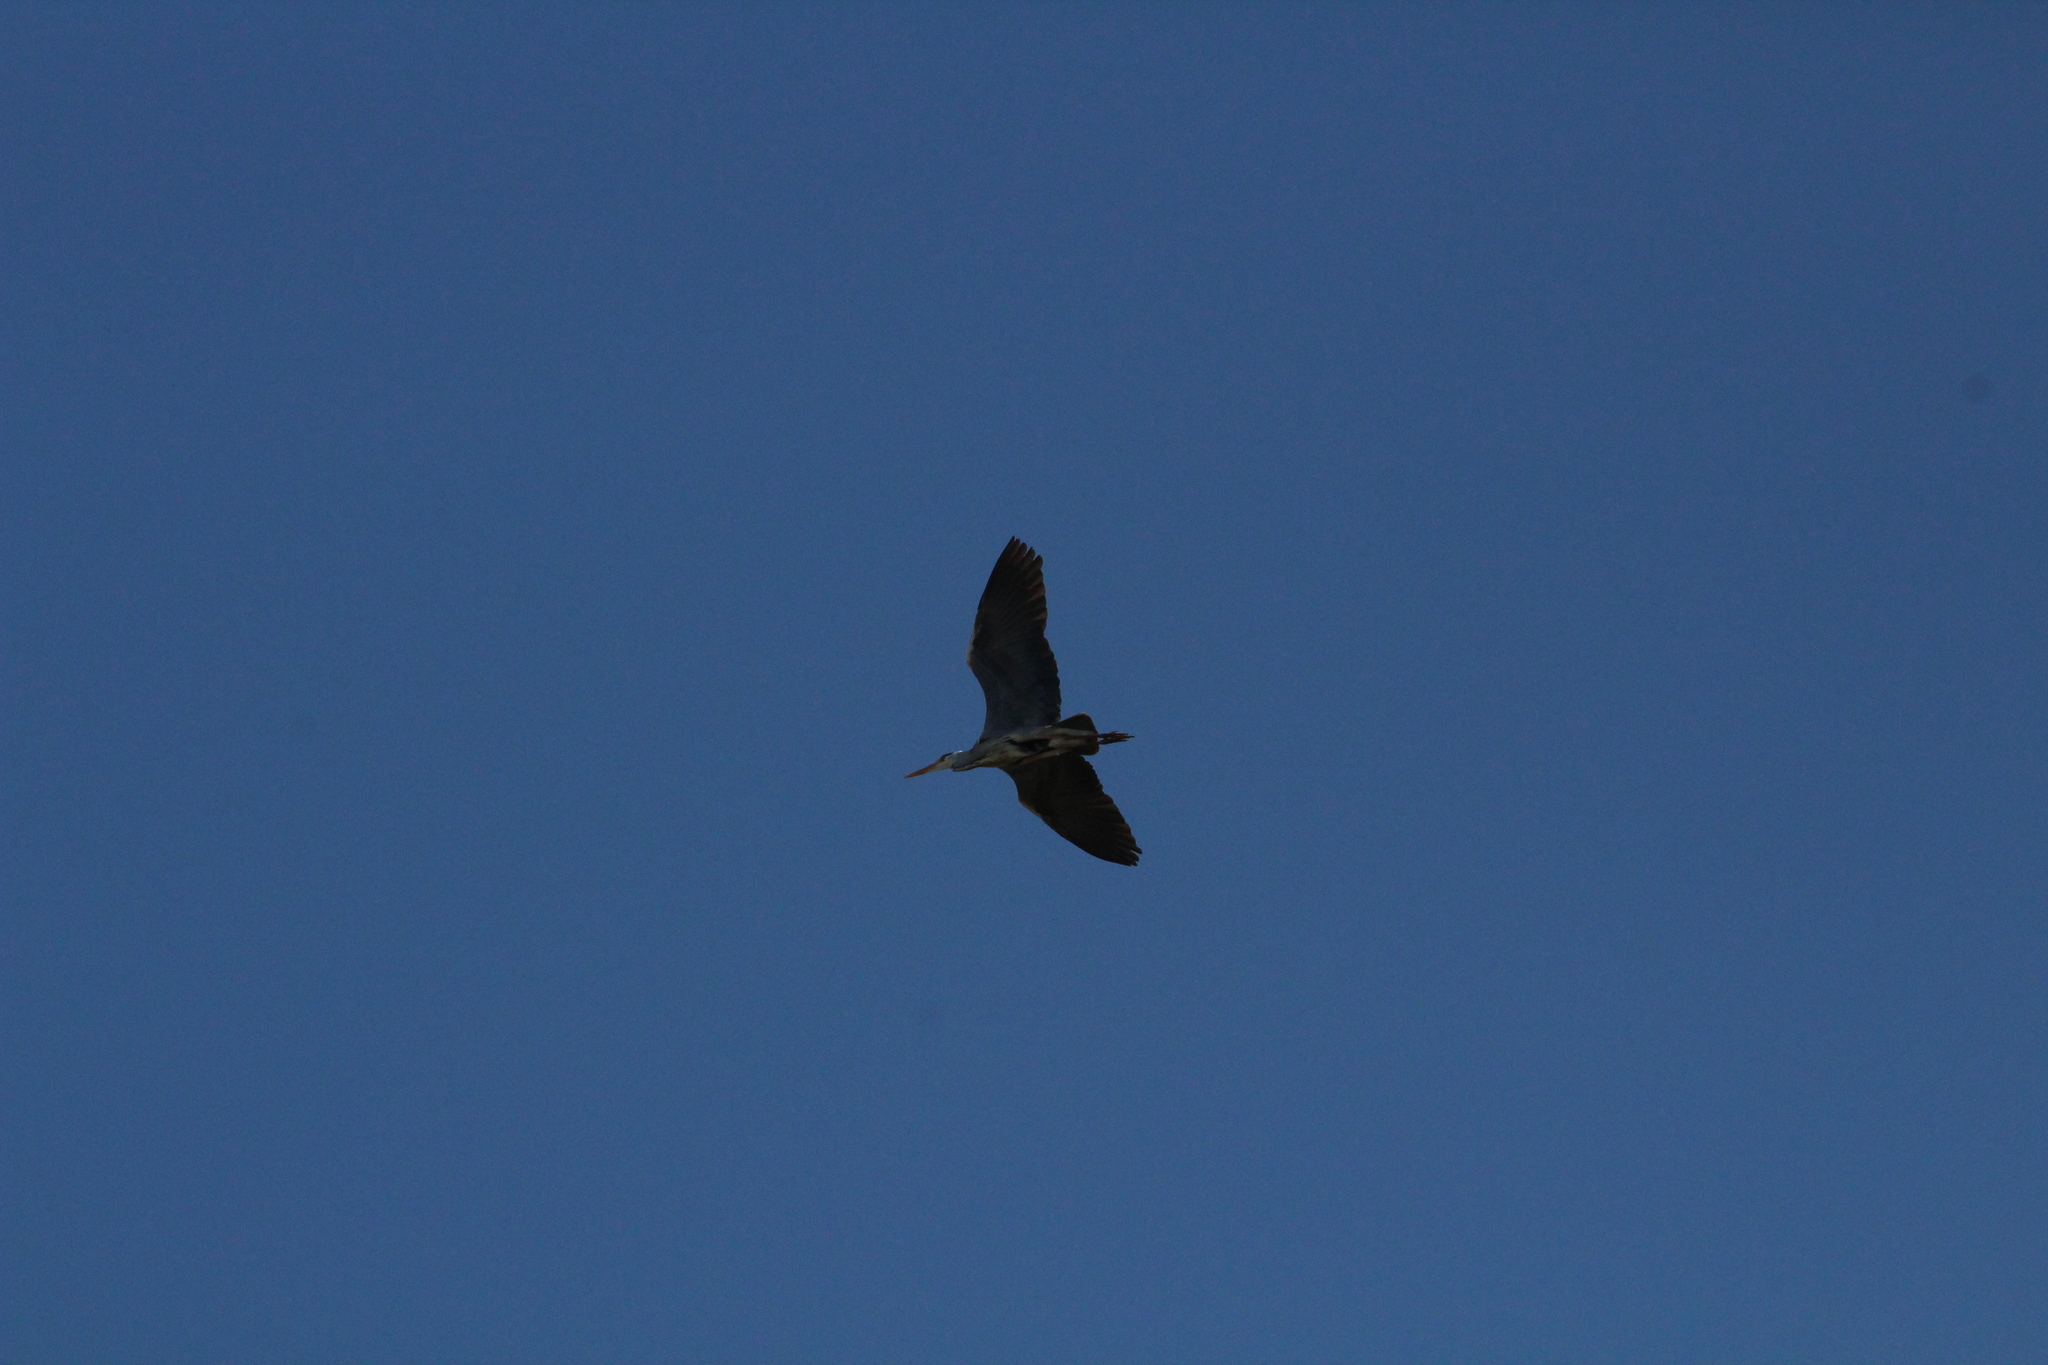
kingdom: Animalia
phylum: Chordata
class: Aves
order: Pelecaniformes
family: Ardeidae
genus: Ardea
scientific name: Ardea cinerea
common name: Grey heron
